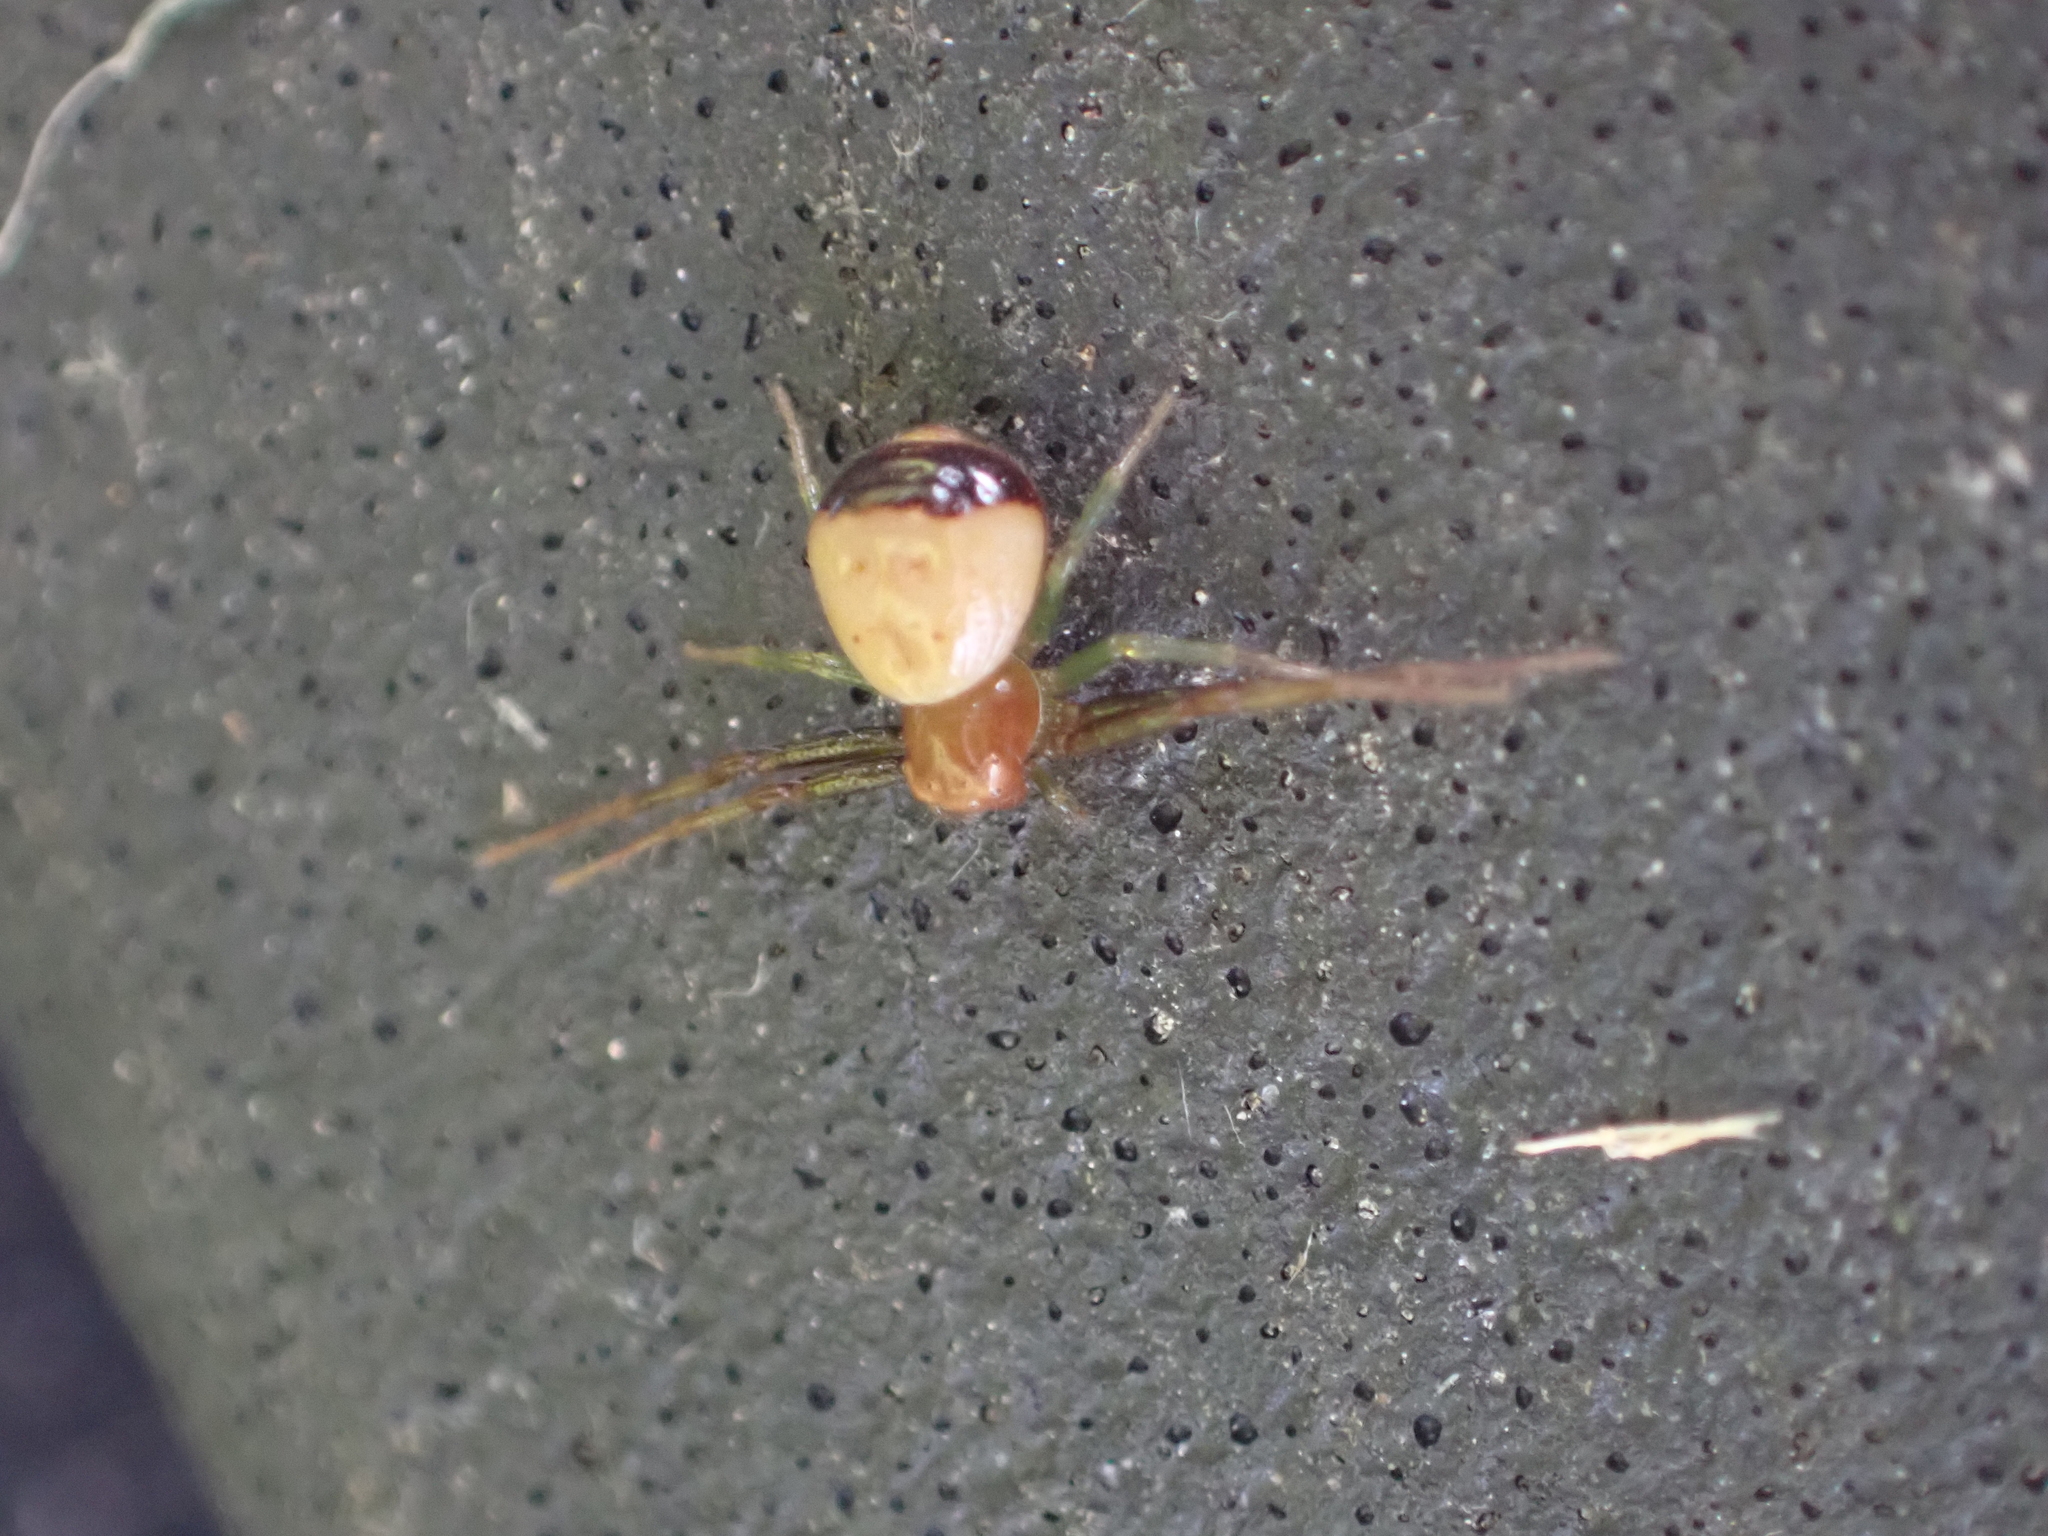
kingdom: Animalia
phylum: Arthropoda
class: Arachnida
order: Araneae
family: Thomisidae
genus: Synema
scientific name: Synema parvulum
